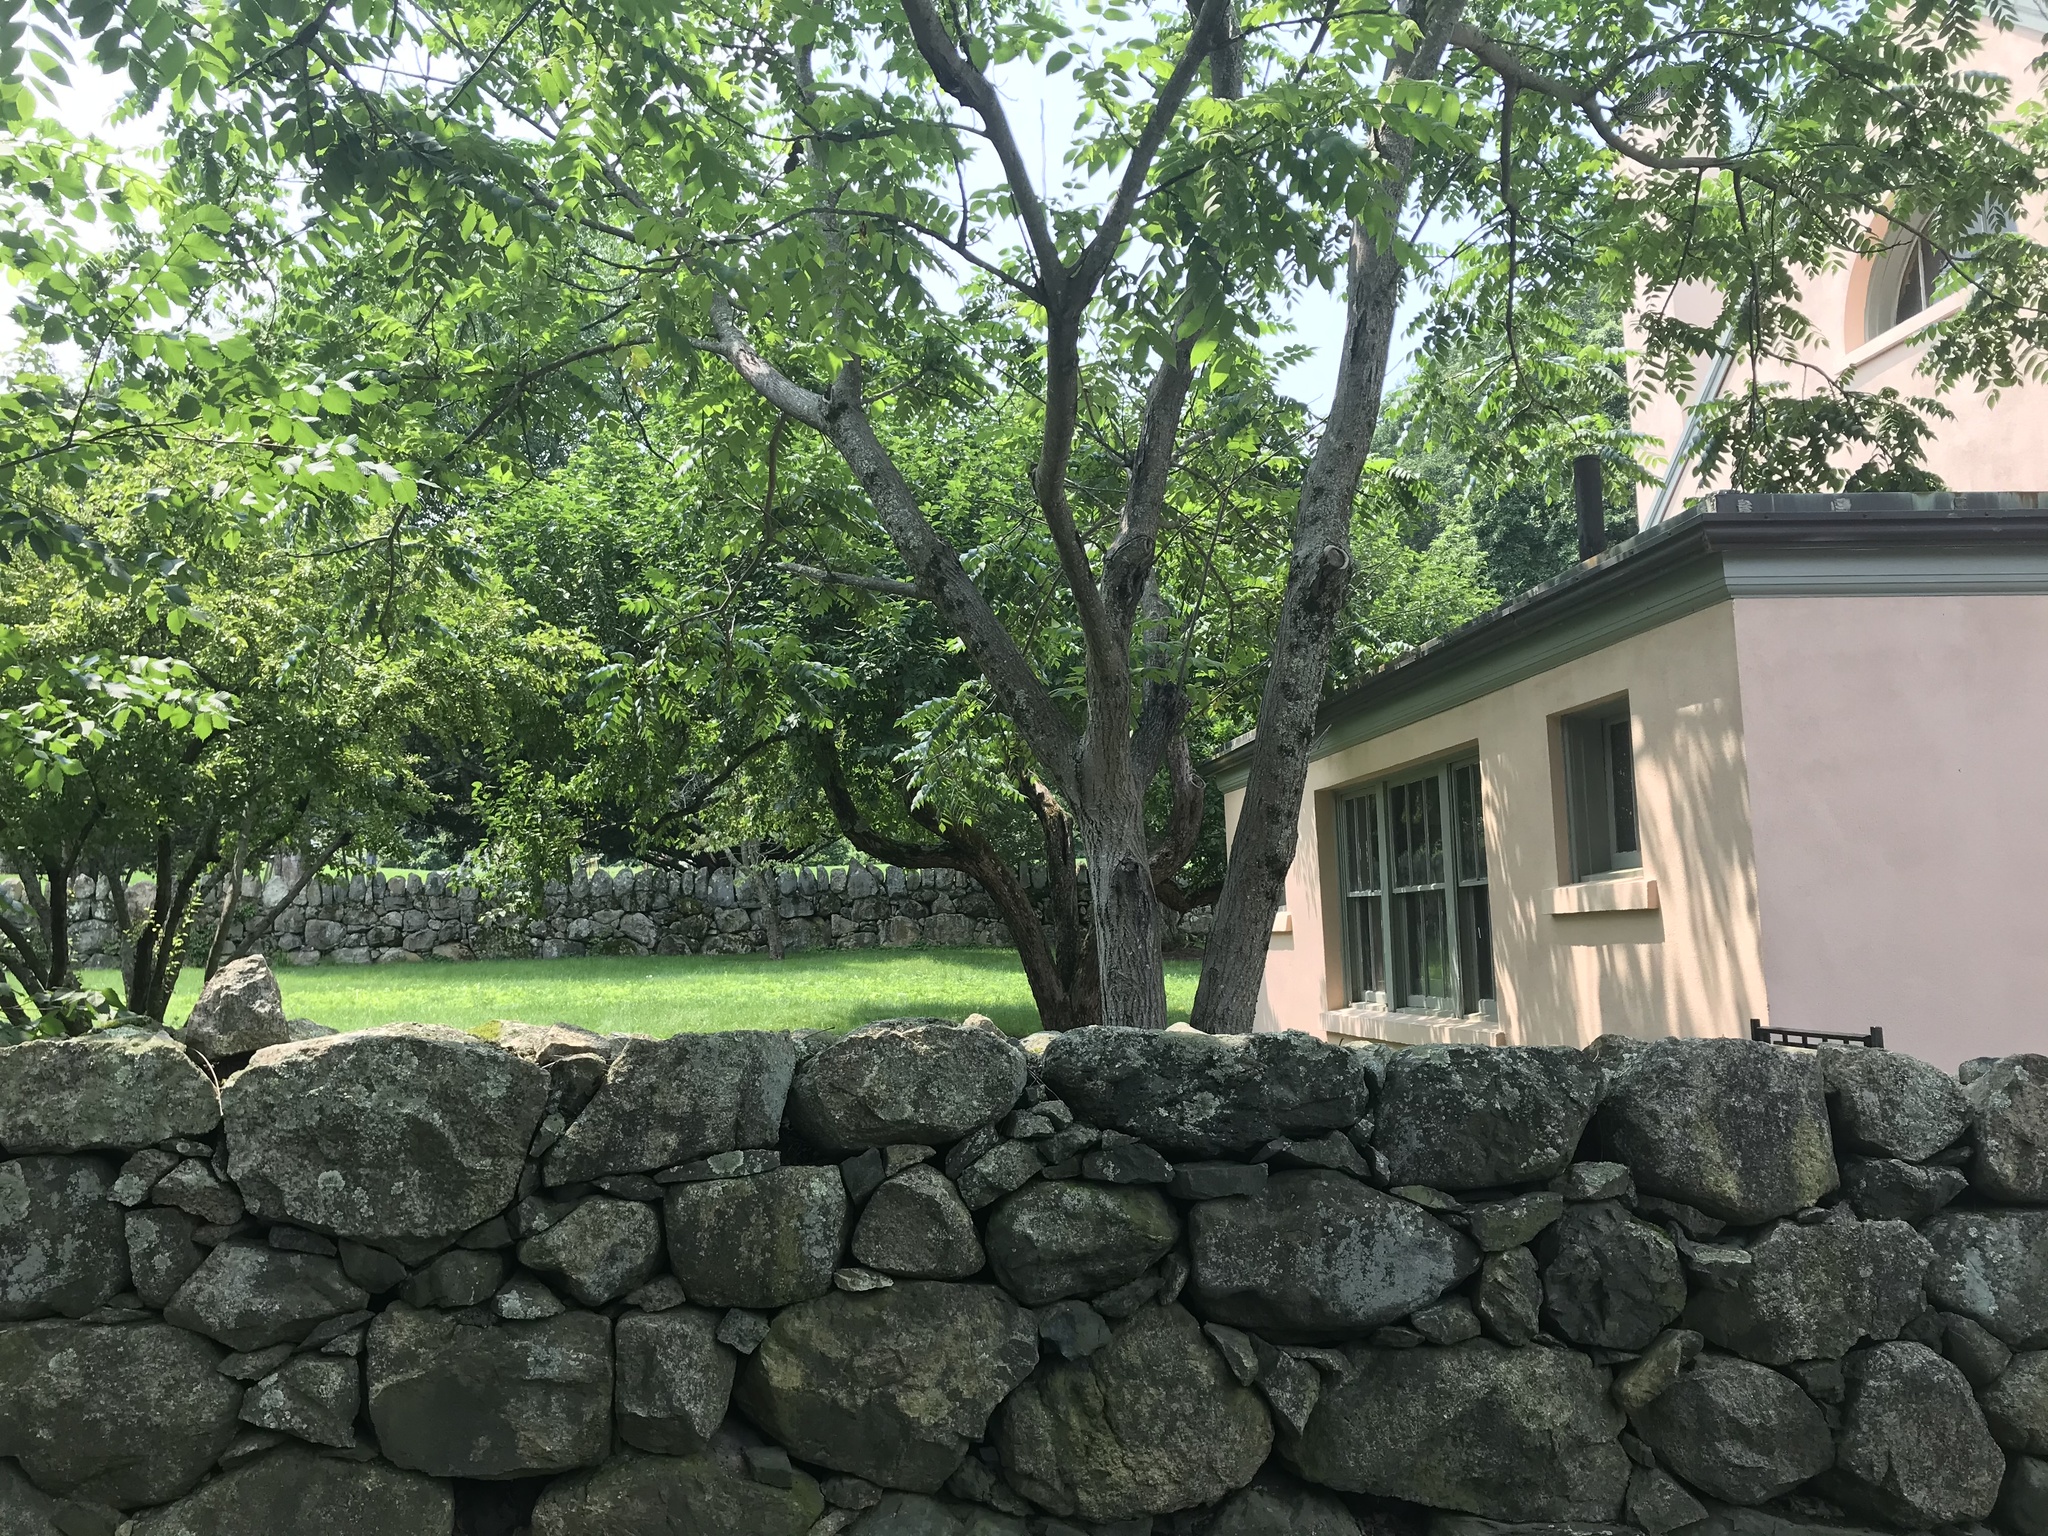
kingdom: Plantae
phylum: Tracheophyta
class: Magnoliopsida
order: Fagales
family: Juglandaceae
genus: Juglans
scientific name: Juglans cinerea
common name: Butternut
